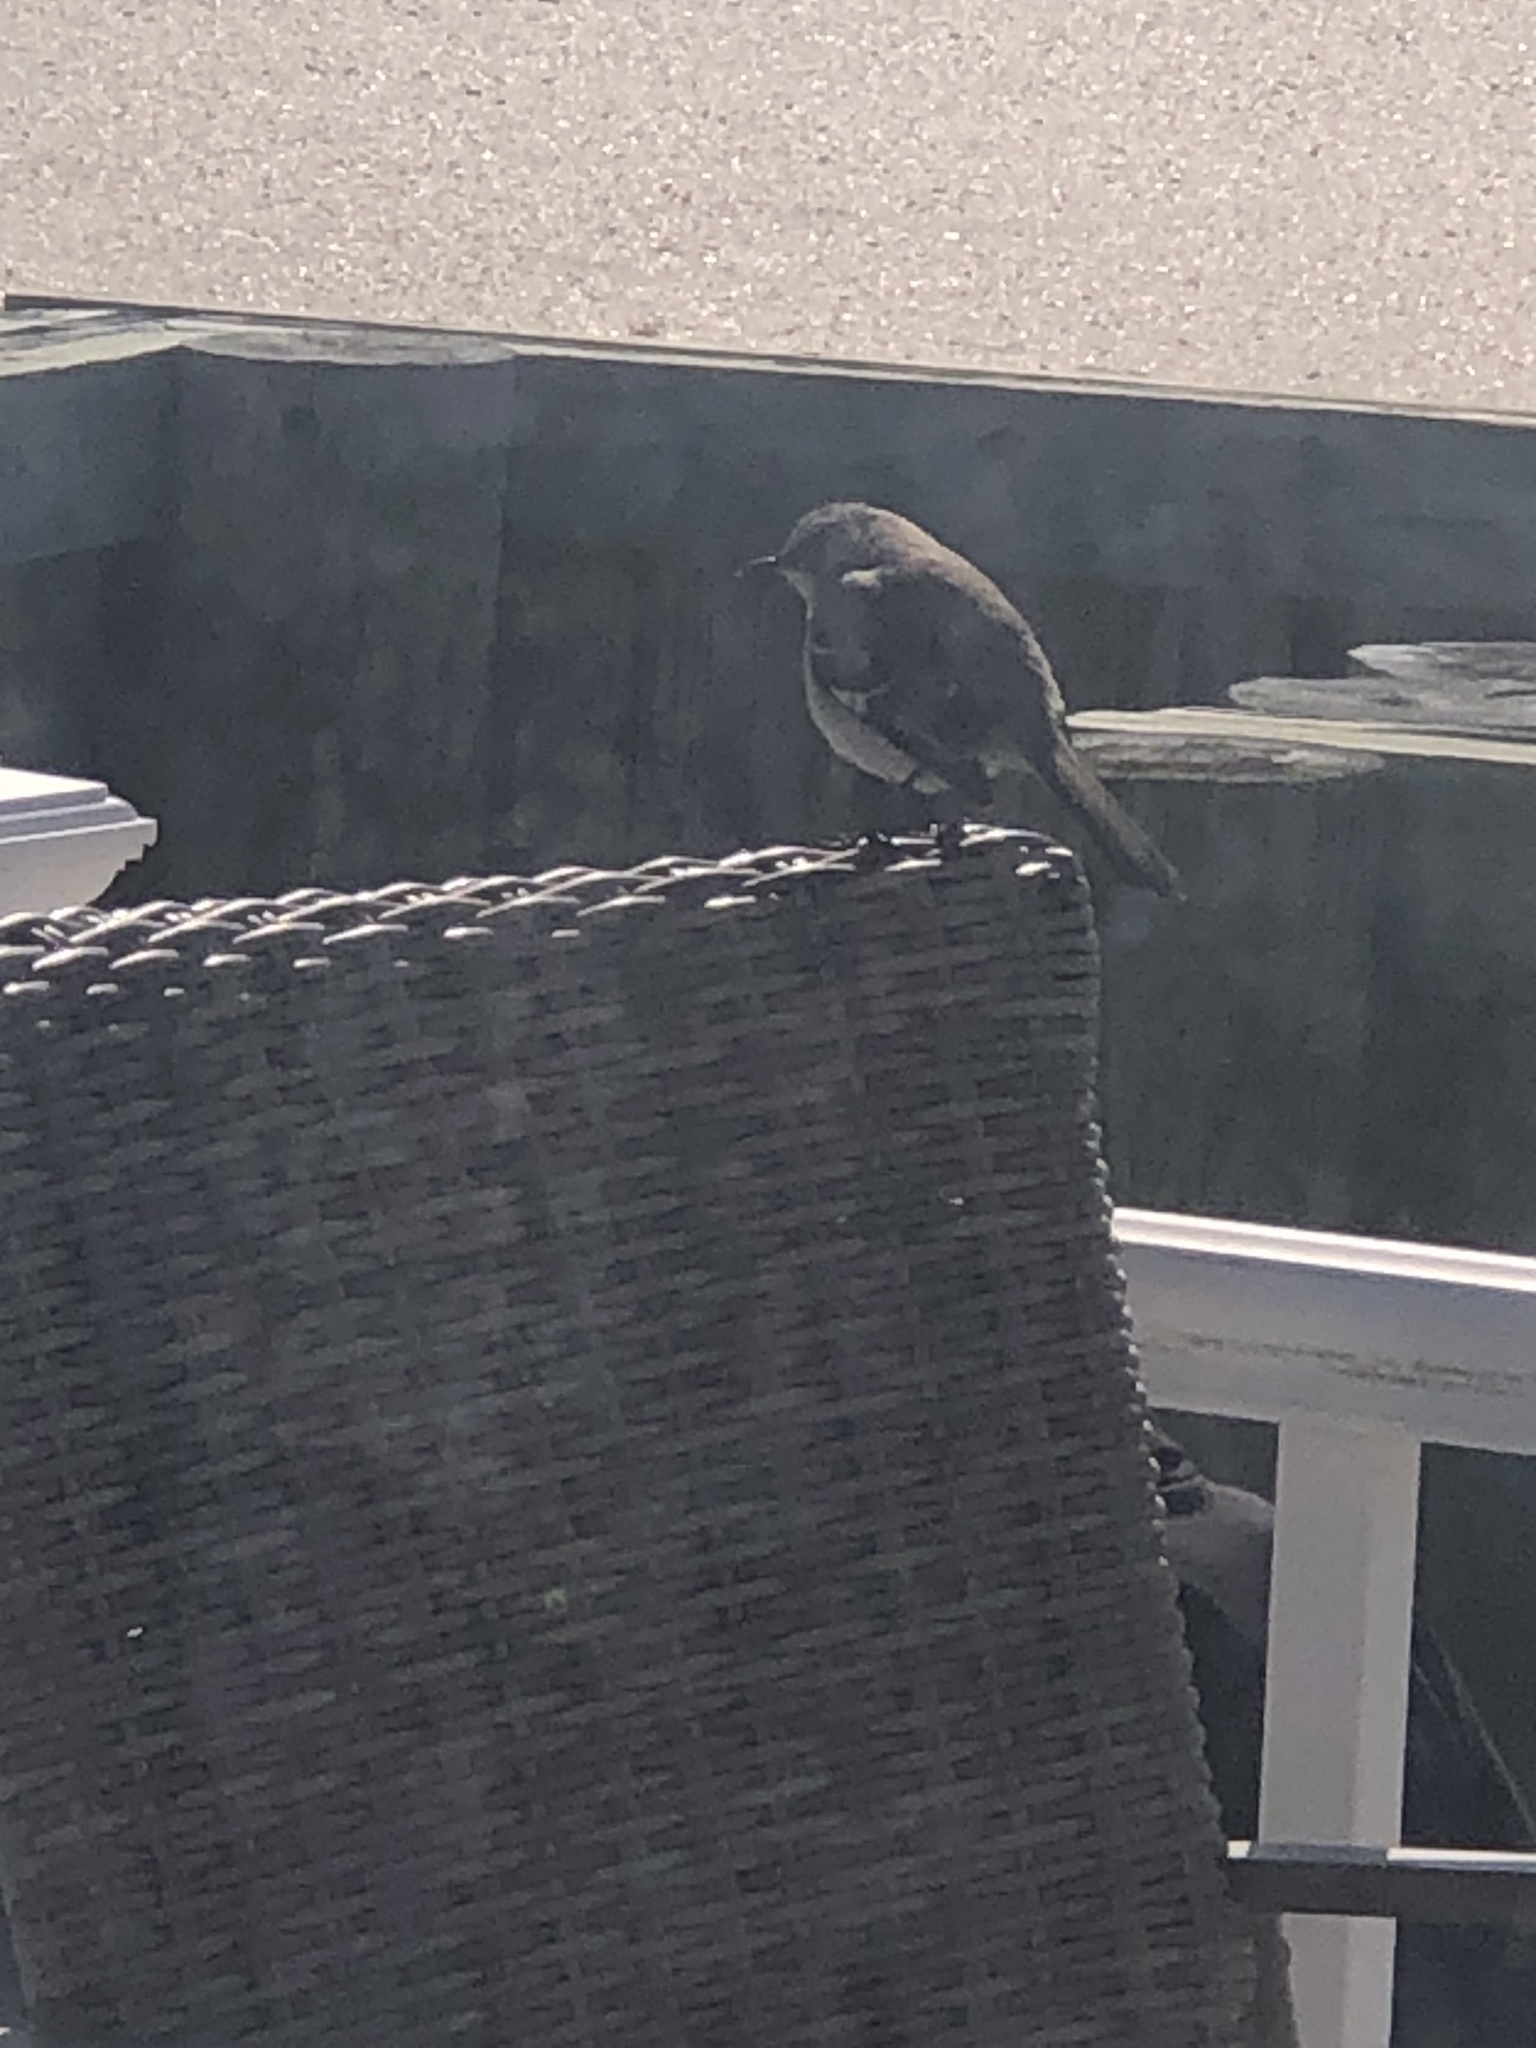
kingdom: Animalia
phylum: Chordata
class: Aves
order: Passeriformes
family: Mimidae
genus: Mimus
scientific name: Mimus polyglottos
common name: Northern mockingbird
